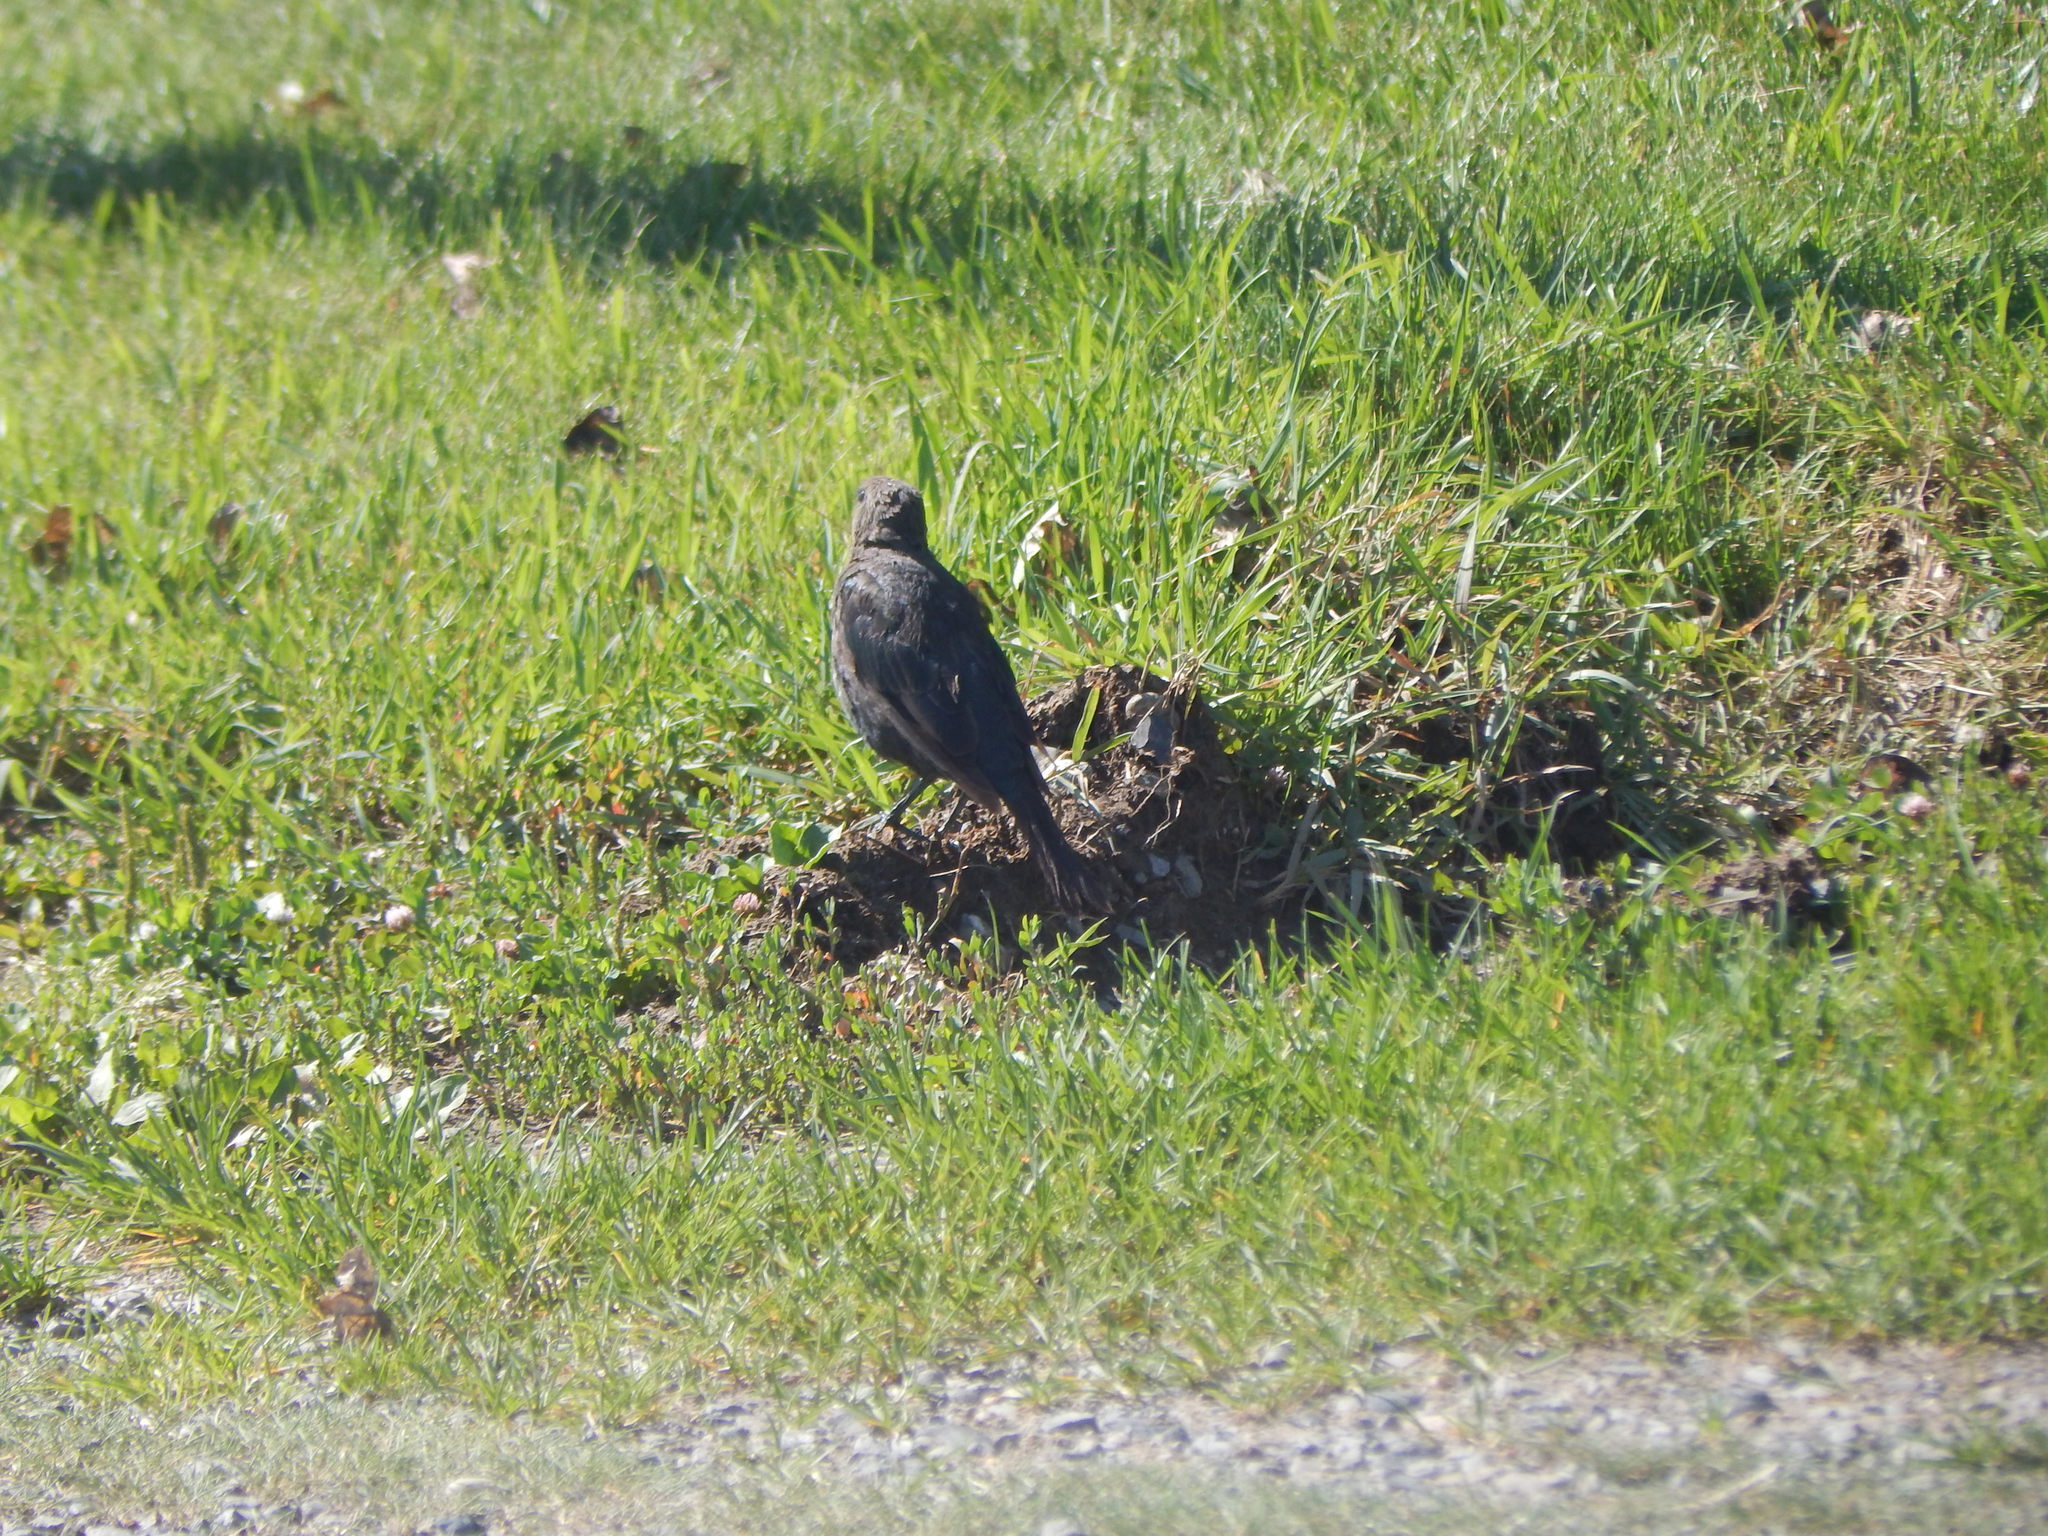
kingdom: Animalia
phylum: Chordata
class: Aves
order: Passeriformes
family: Icteridae
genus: Euphagus
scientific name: Euphagus cyanocephalus
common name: Brewer's blackbird
